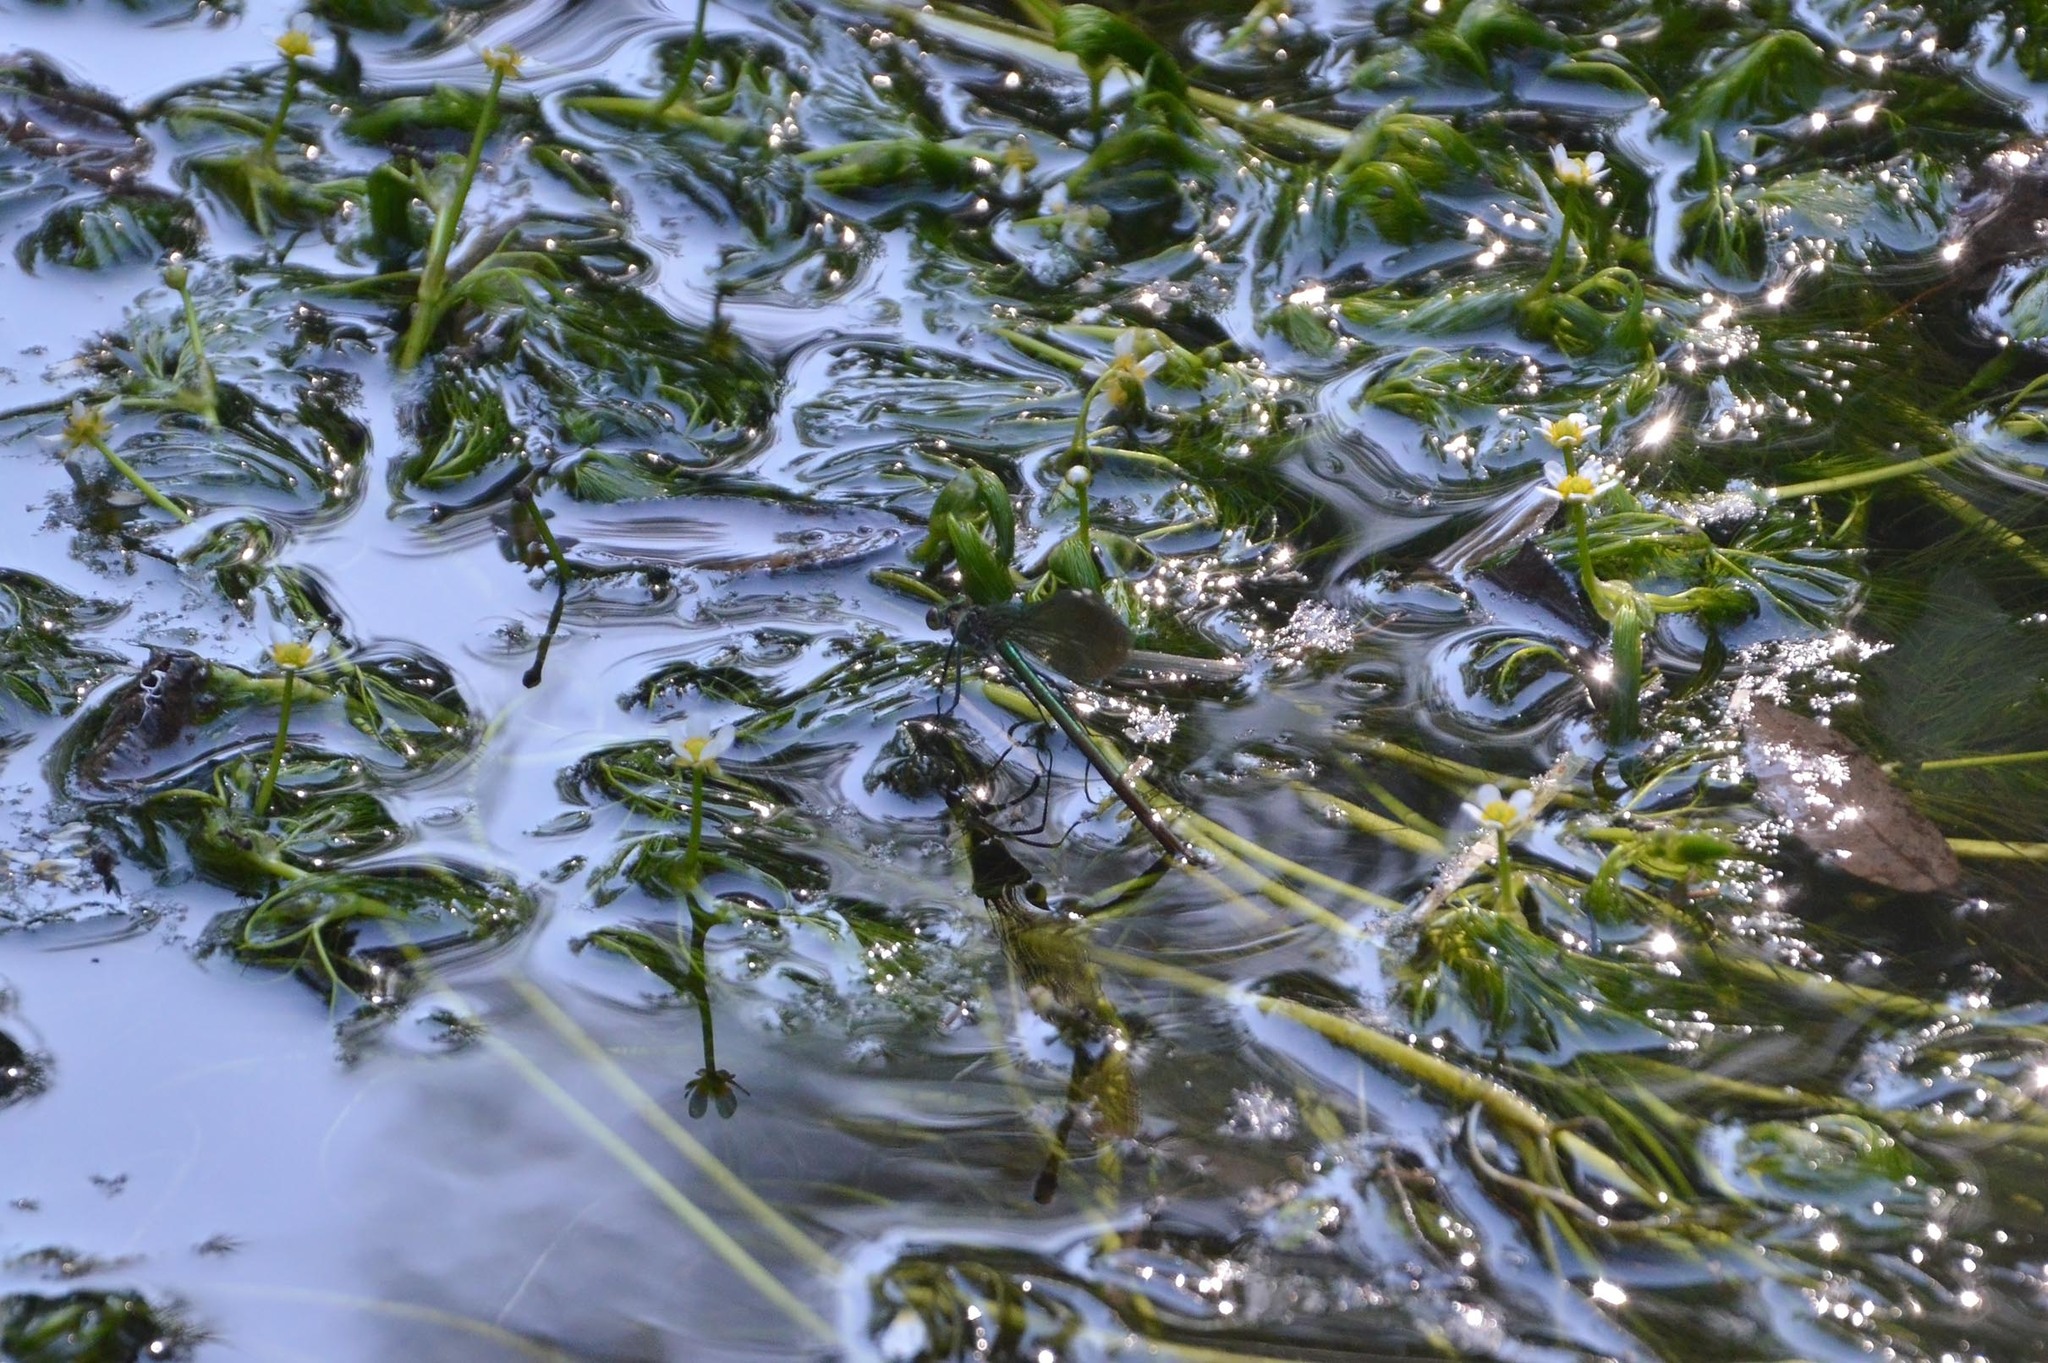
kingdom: Animalia
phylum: Arthropoda
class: Insecta
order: Odonata
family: Calopterygidae
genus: Calopteryx
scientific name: Calopteryx splendens
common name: Banded demoiselle
